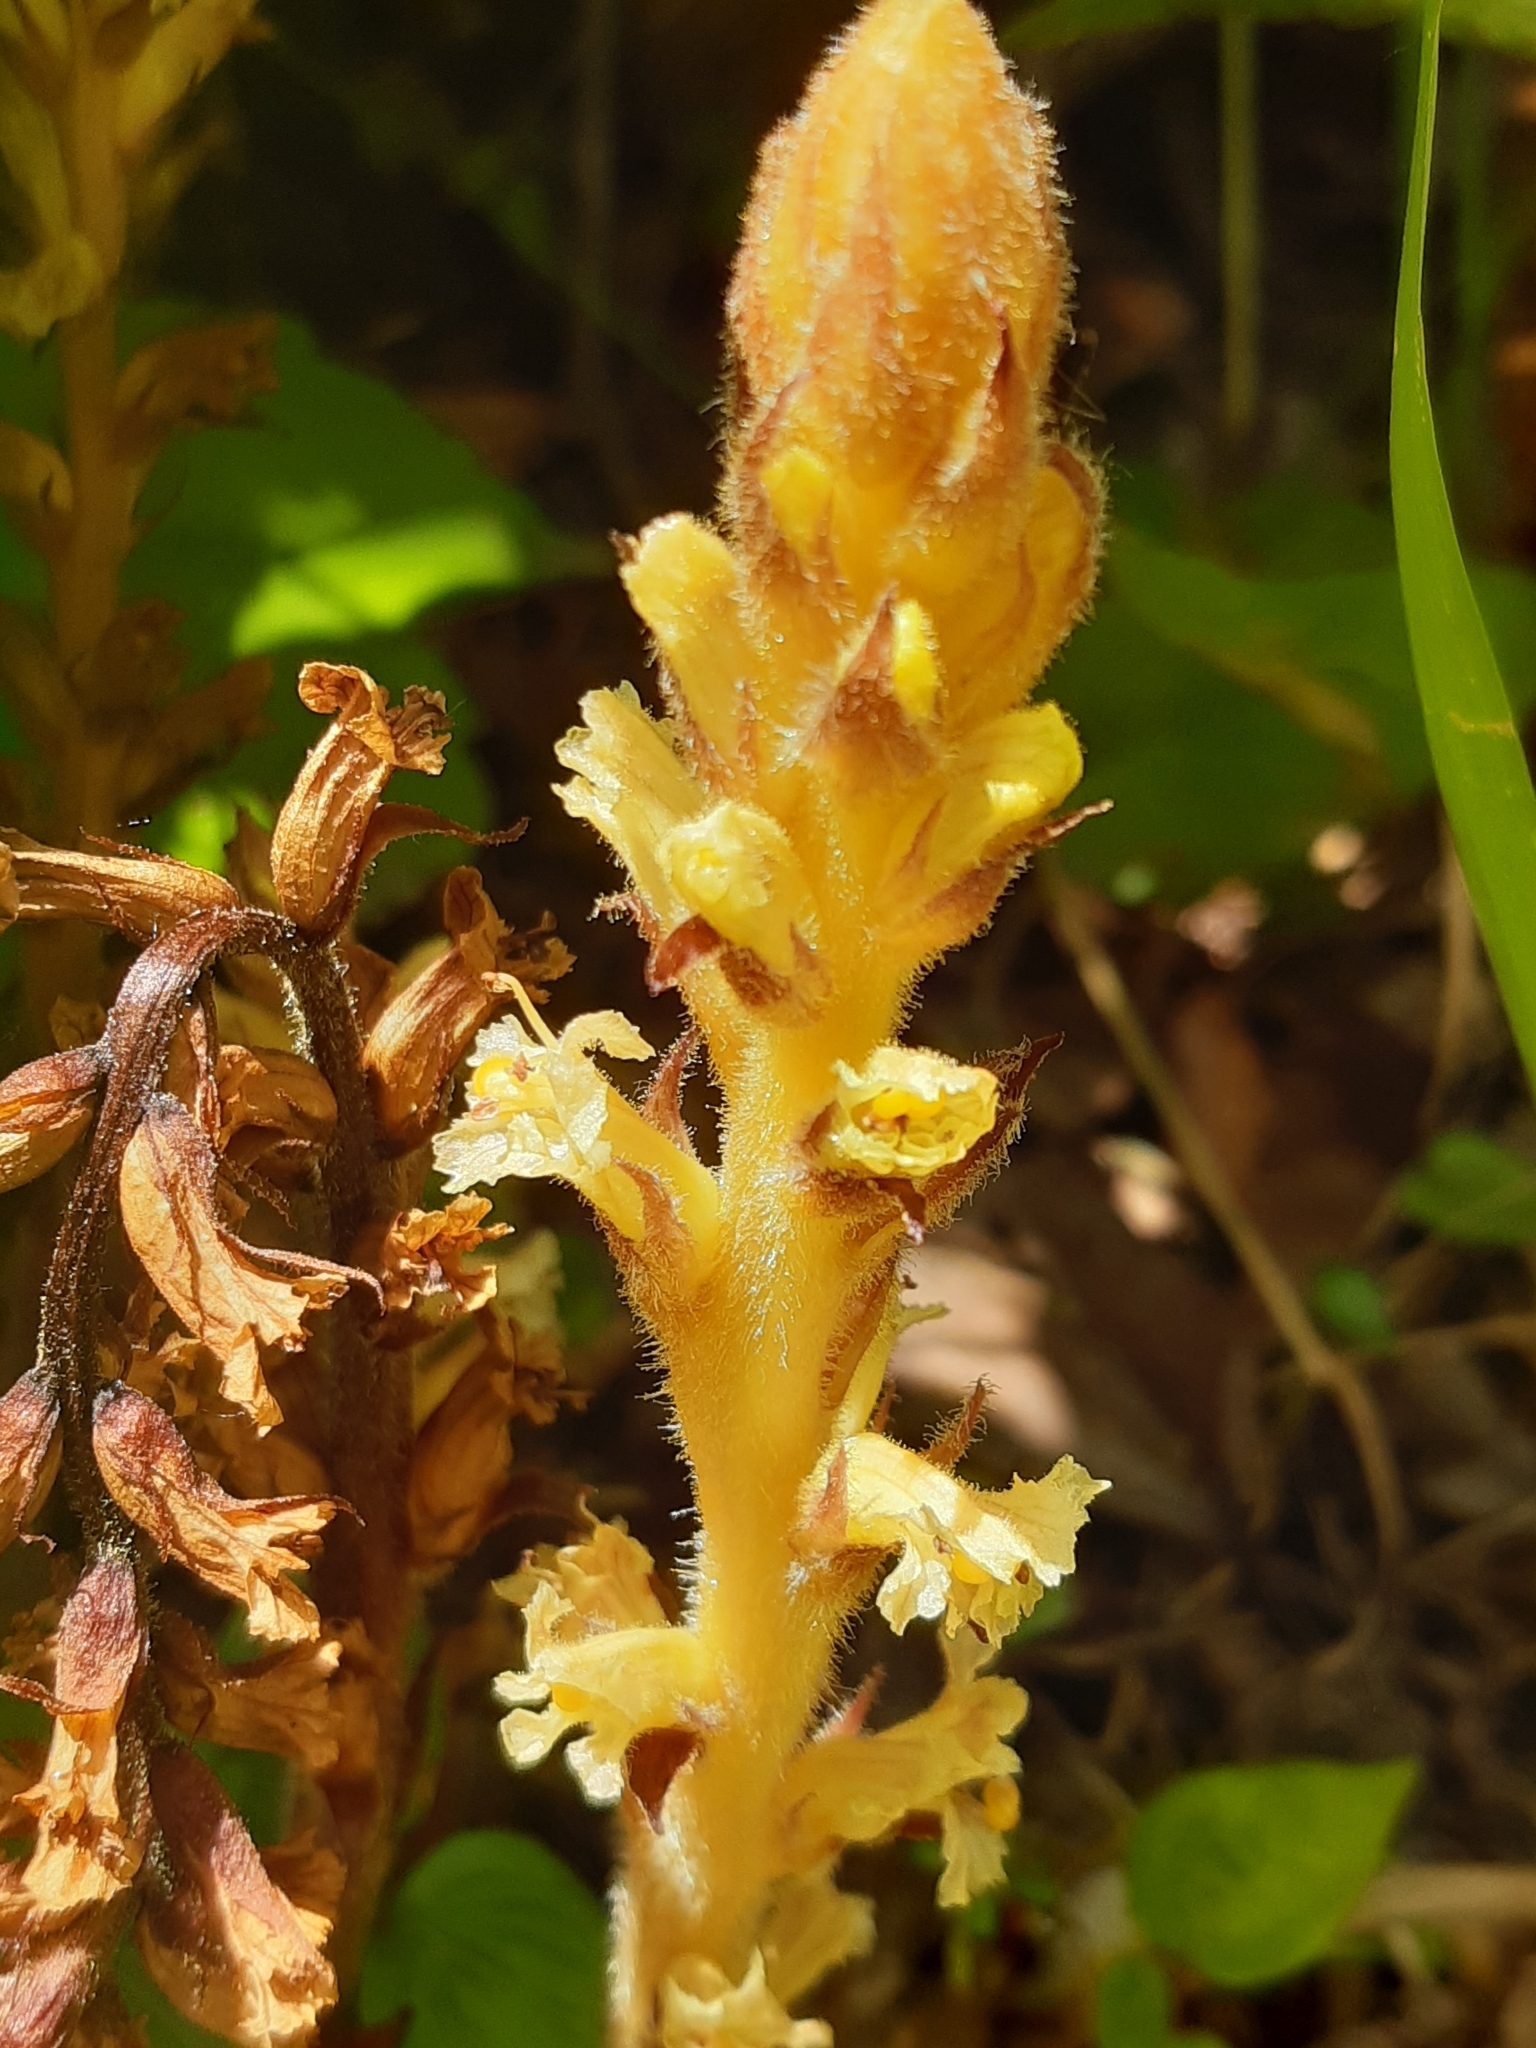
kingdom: Plantae
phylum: Tracheophyta
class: Magnoliopsida
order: Lamiales
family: Orobanchaceae
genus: Orobanche
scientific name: Orobanche hederae
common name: Ivy broomrape
